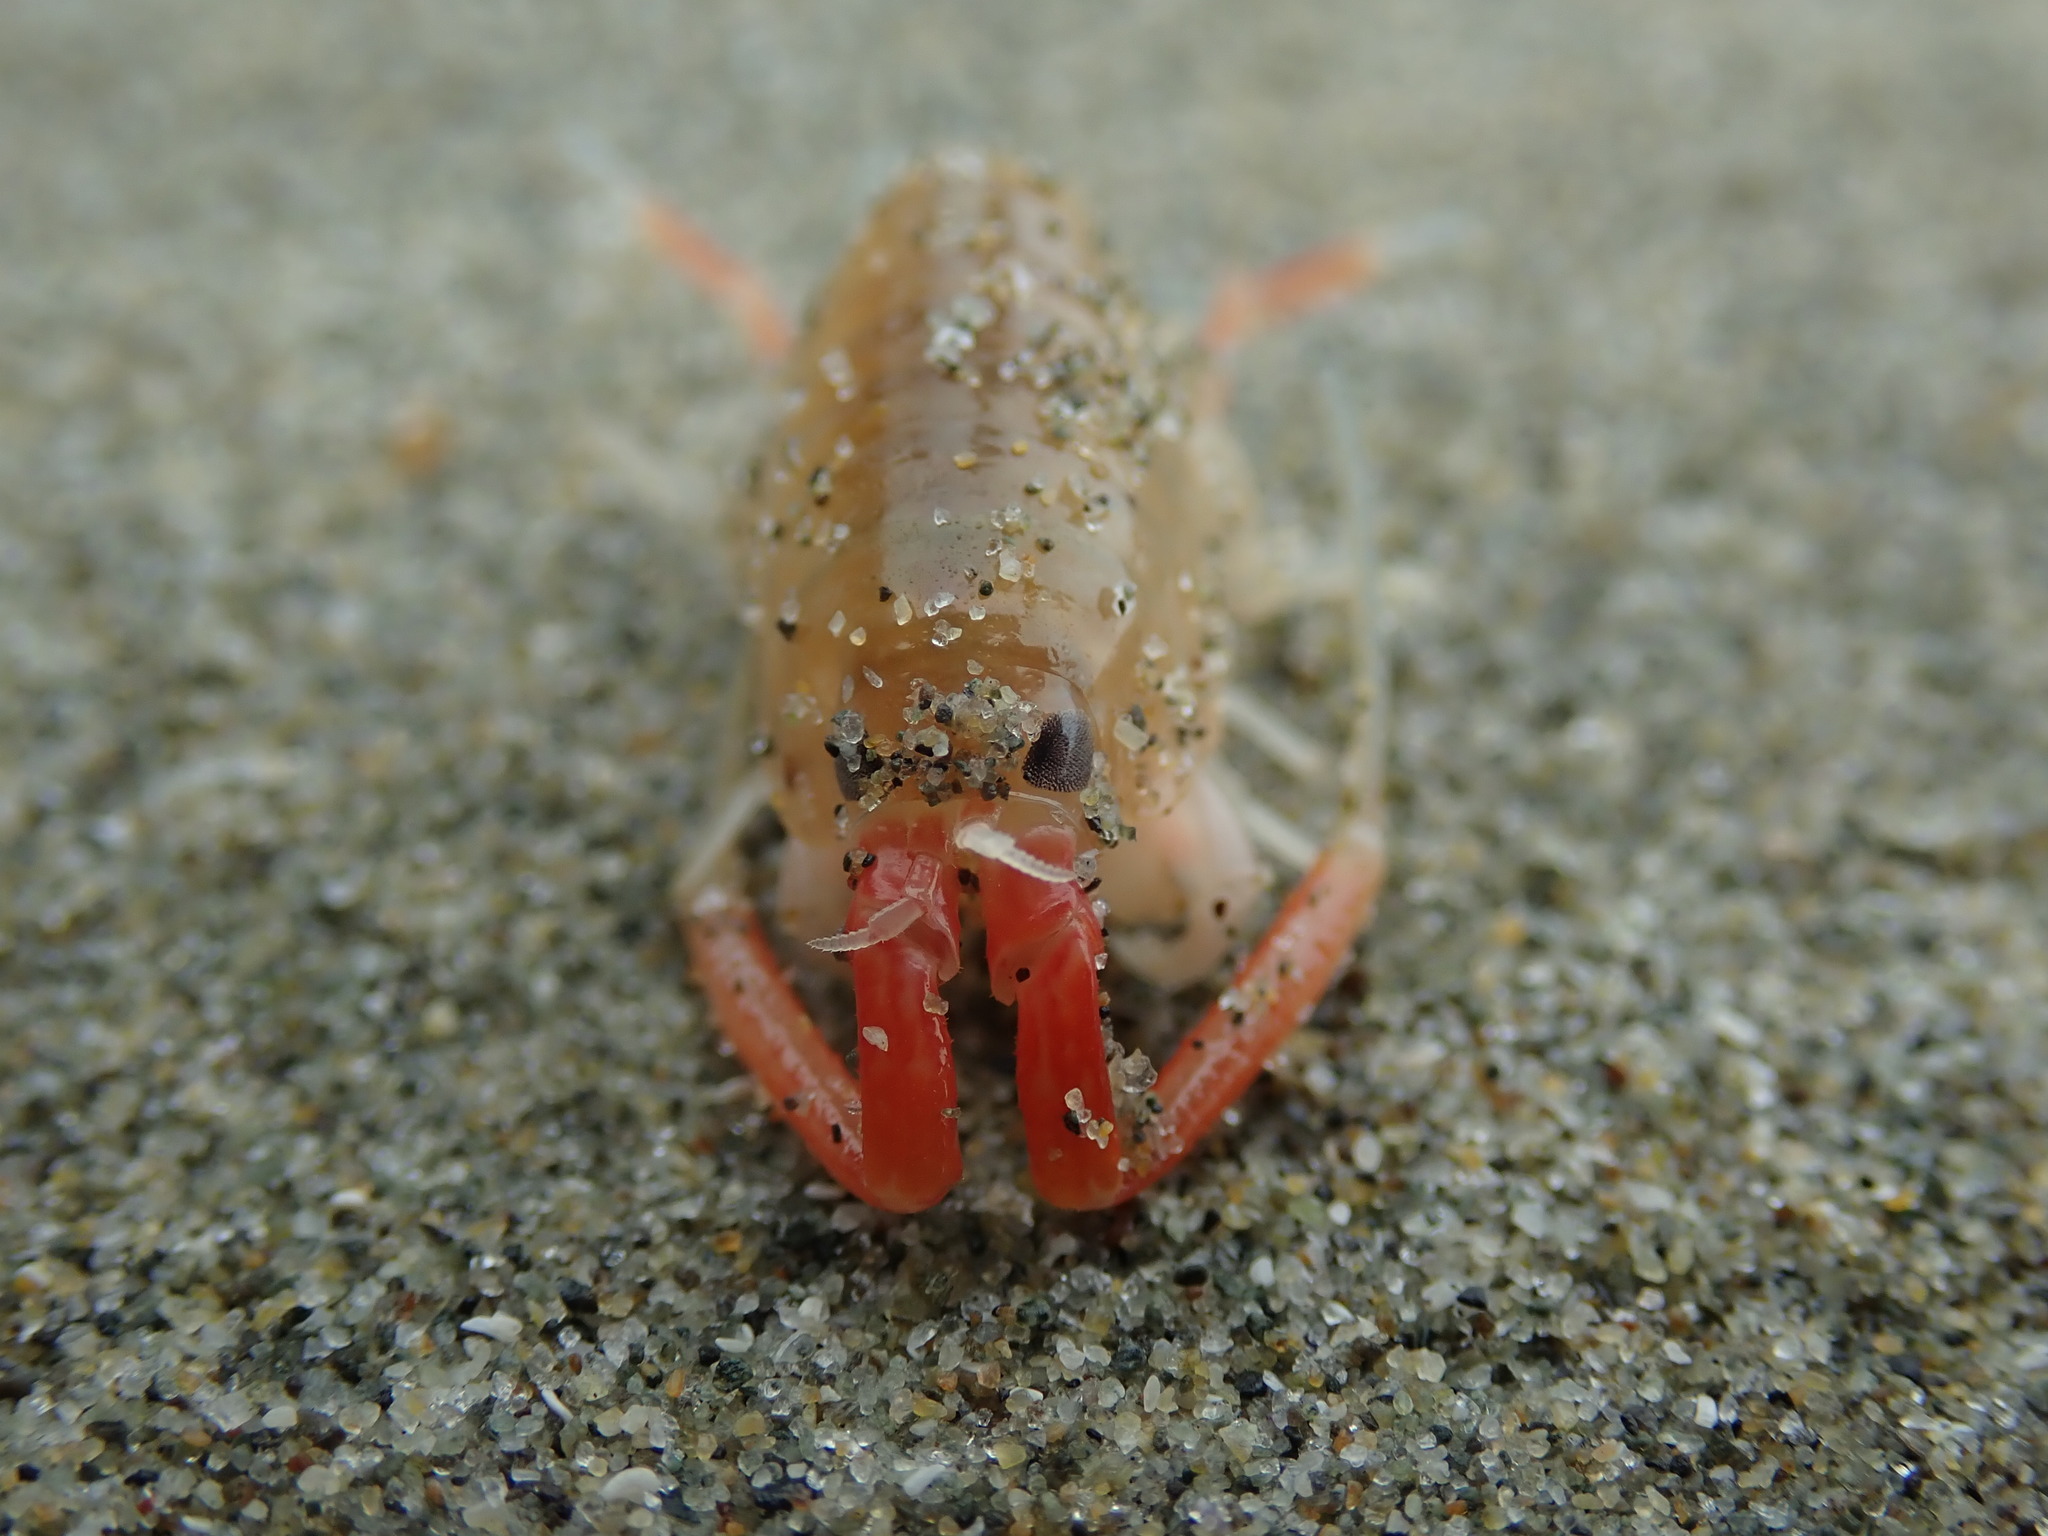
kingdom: Animalia
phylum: Arthropoda
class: Malacostraca
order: Amphipoda
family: Talitridae
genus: Megalorchestia
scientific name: Megalorchestia californiana
